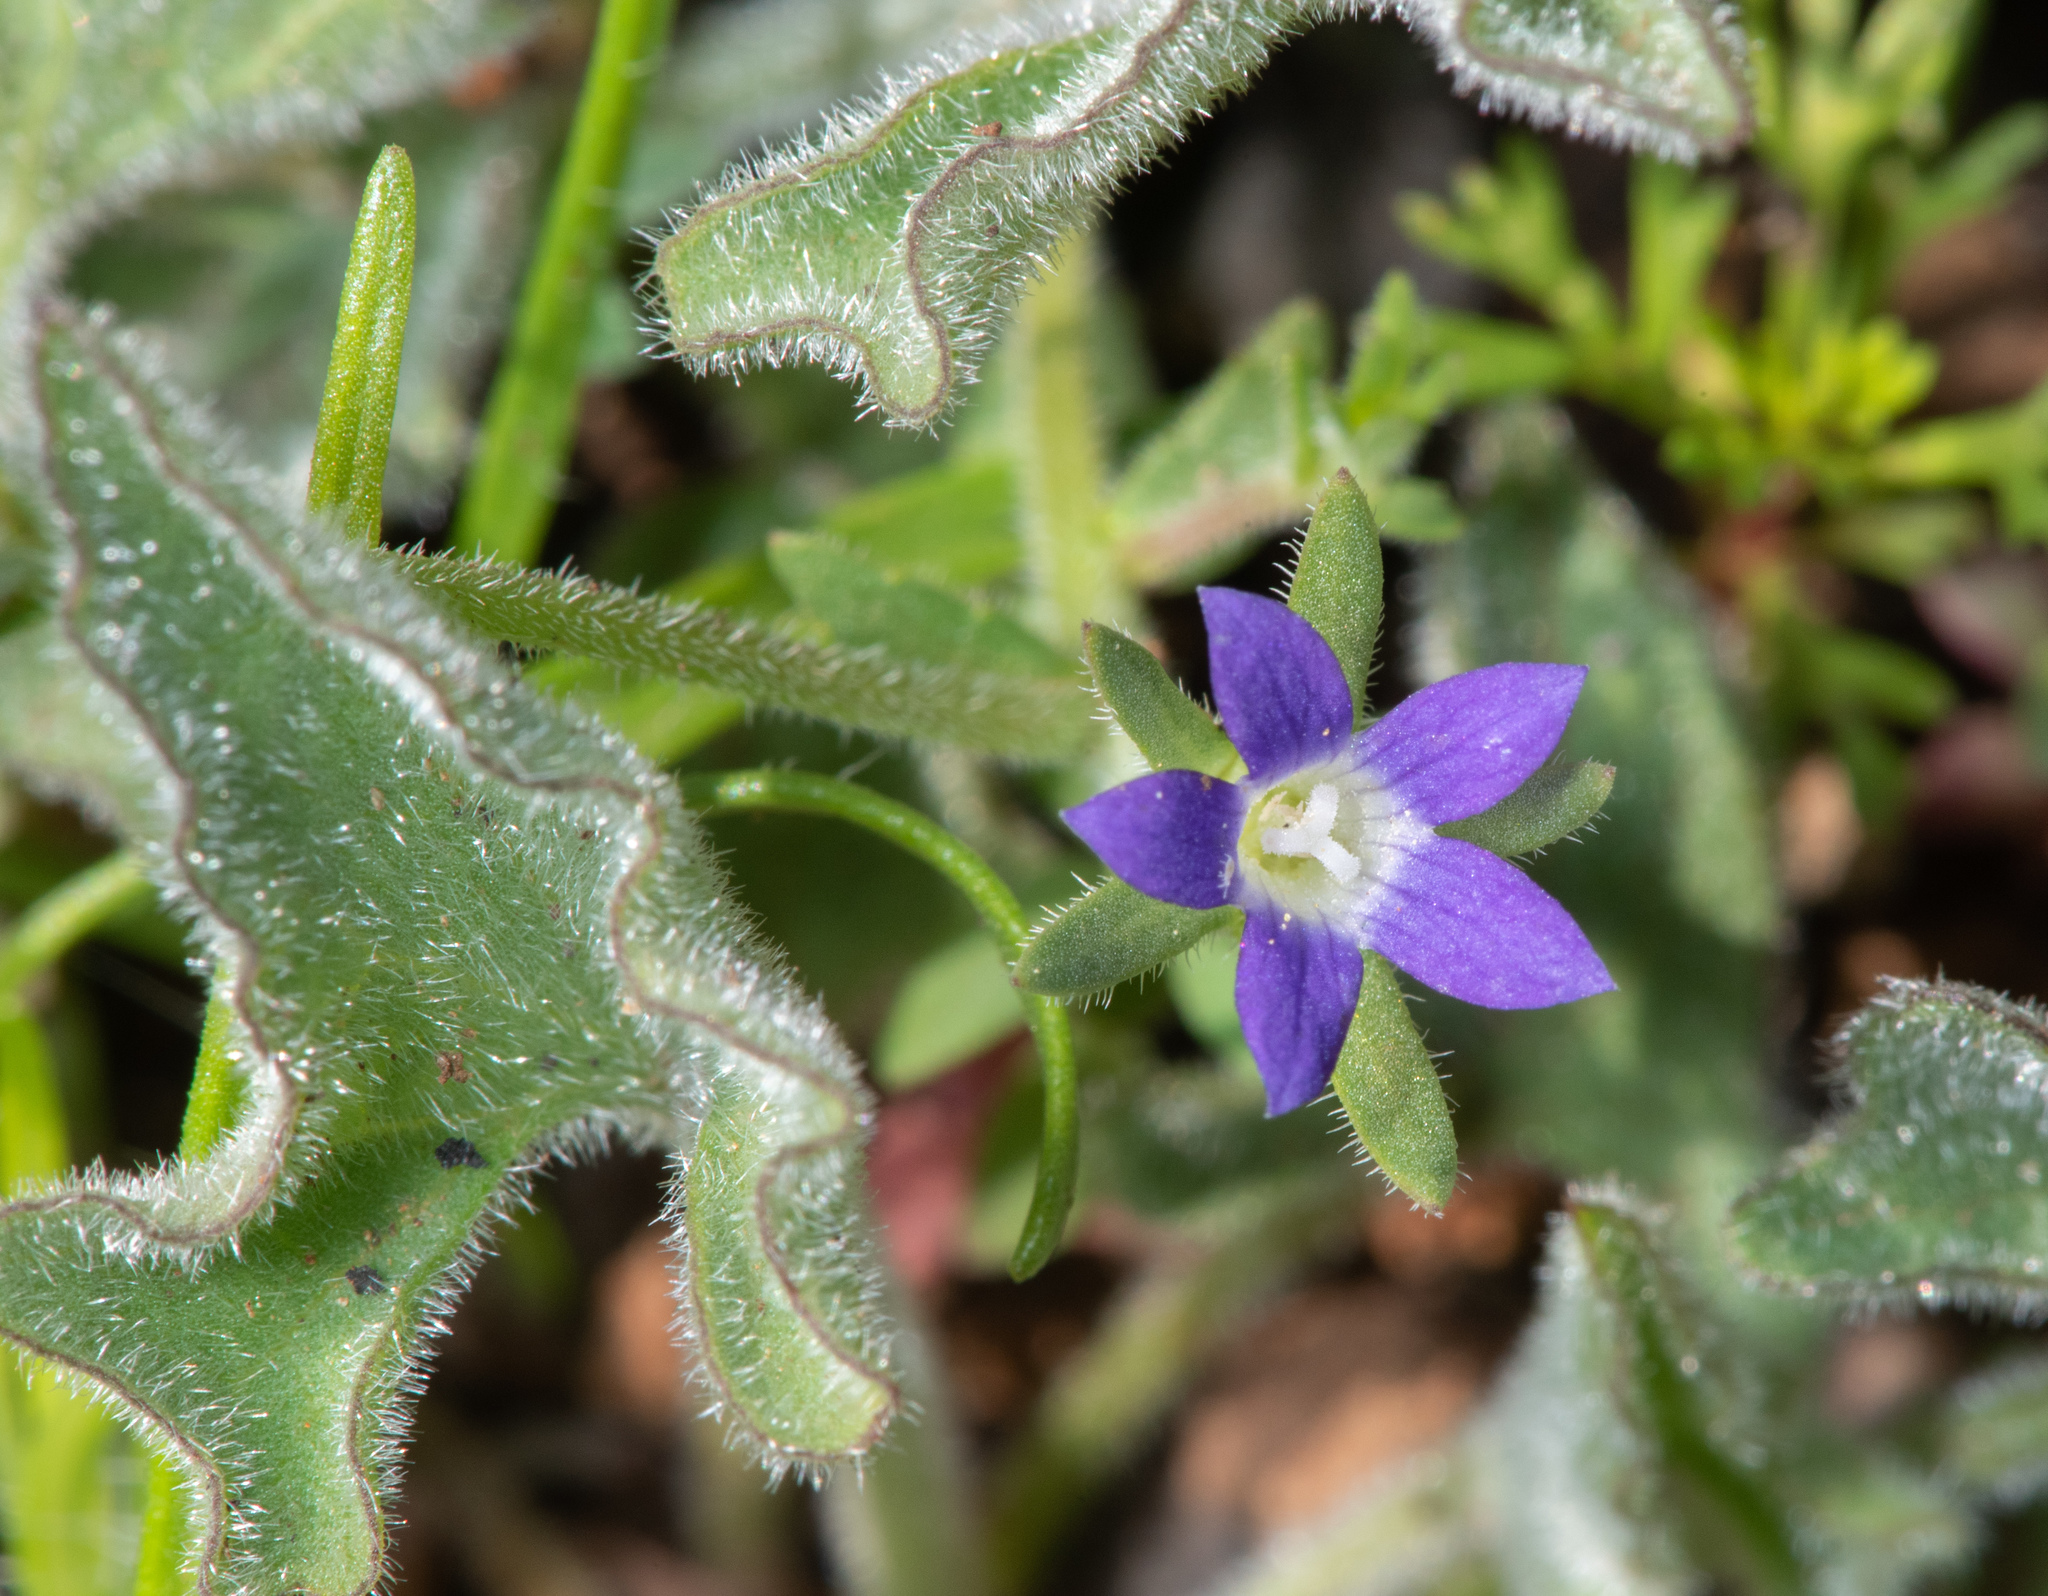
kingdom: Plantae
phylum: Tracheophyta
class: Magnoliopsida
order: Asterales
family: Campanulaceae
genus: Githopsis
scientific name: Githopsis specularioides
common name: Common bluecup
